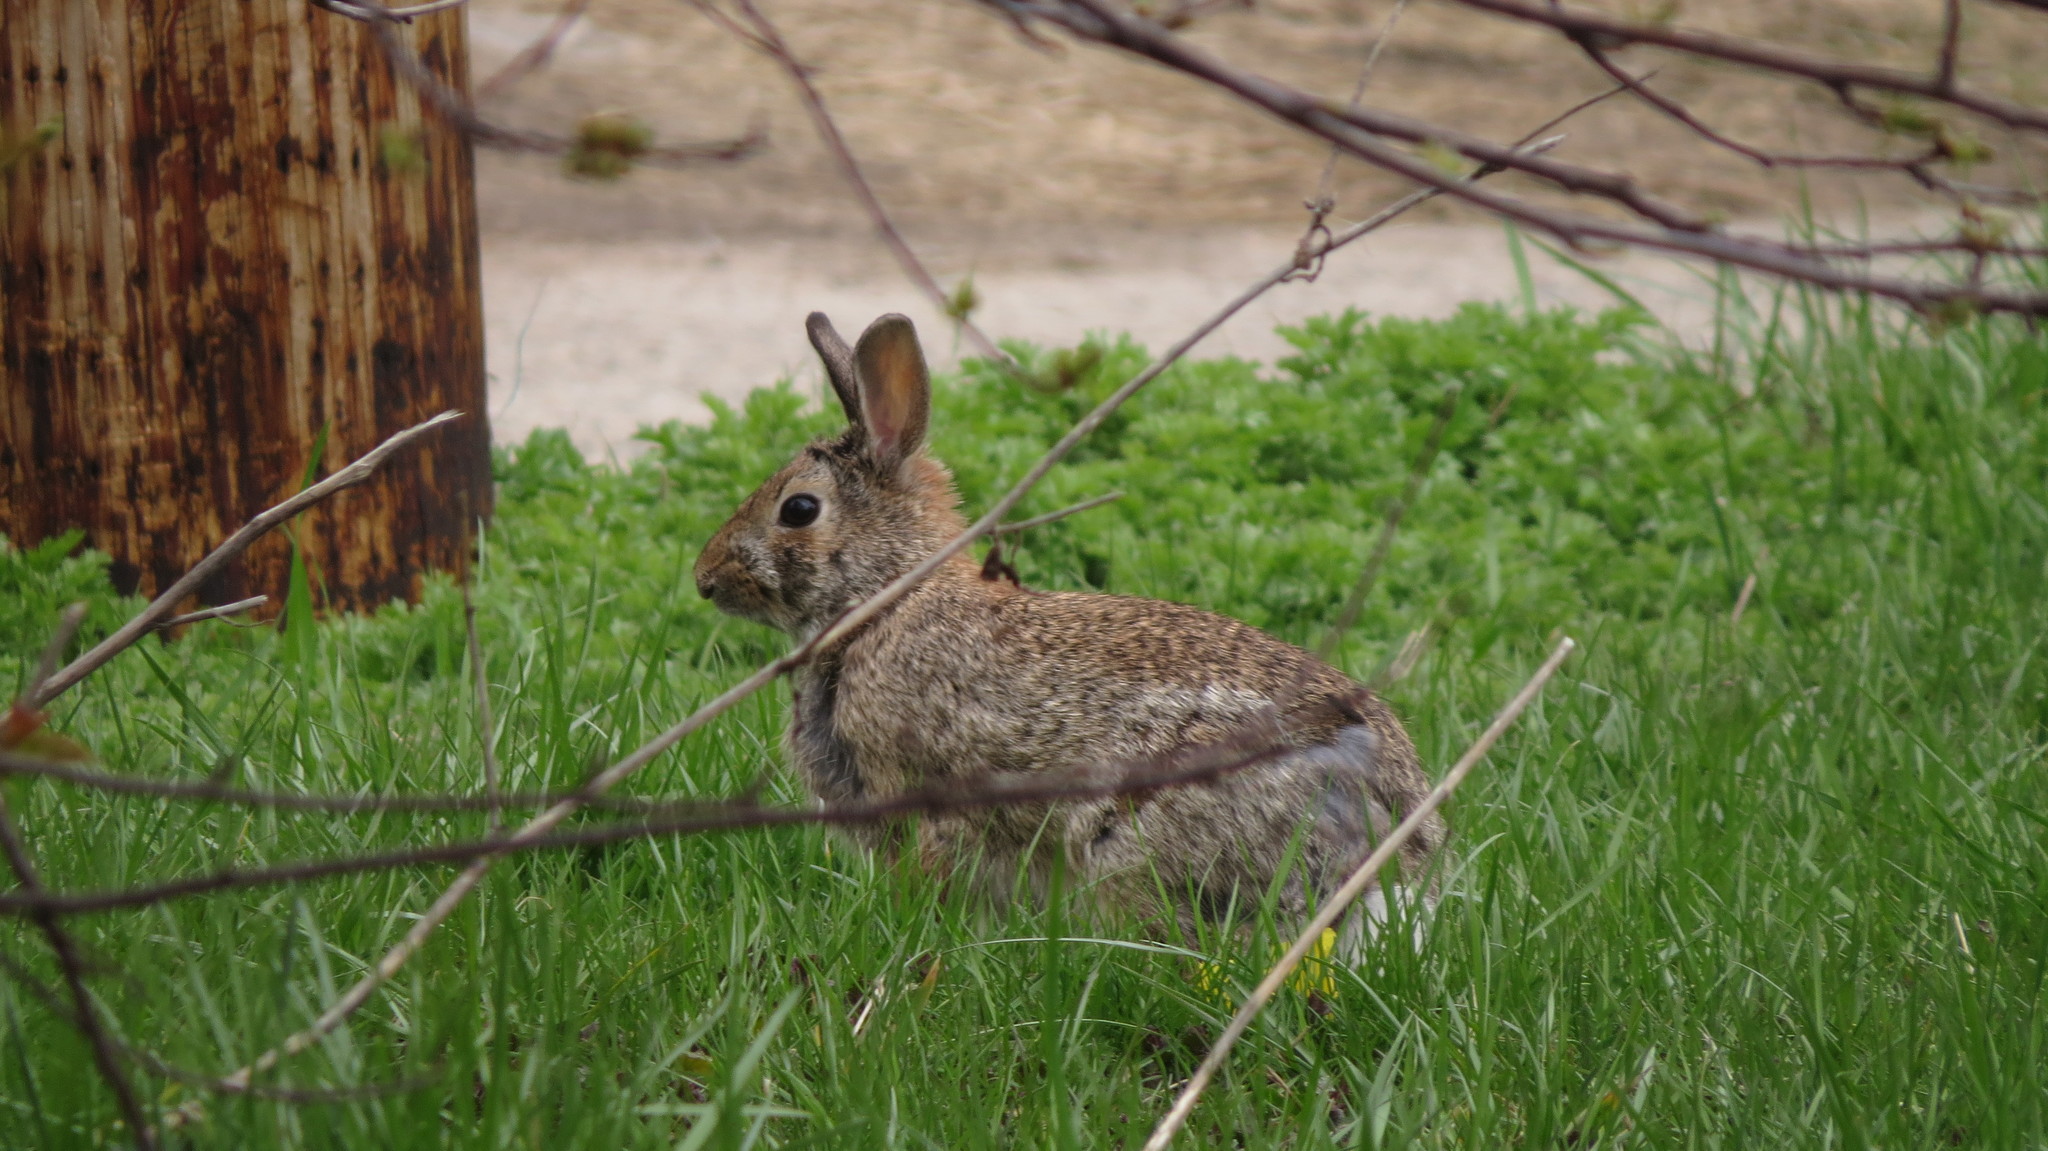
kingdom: Animalia
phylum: Chordata
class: Mammalia
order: Lagomorpha
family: Leporidae
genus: Sylvilagus
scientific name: Sylvilagus floridanus
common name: Eastern cottontail
